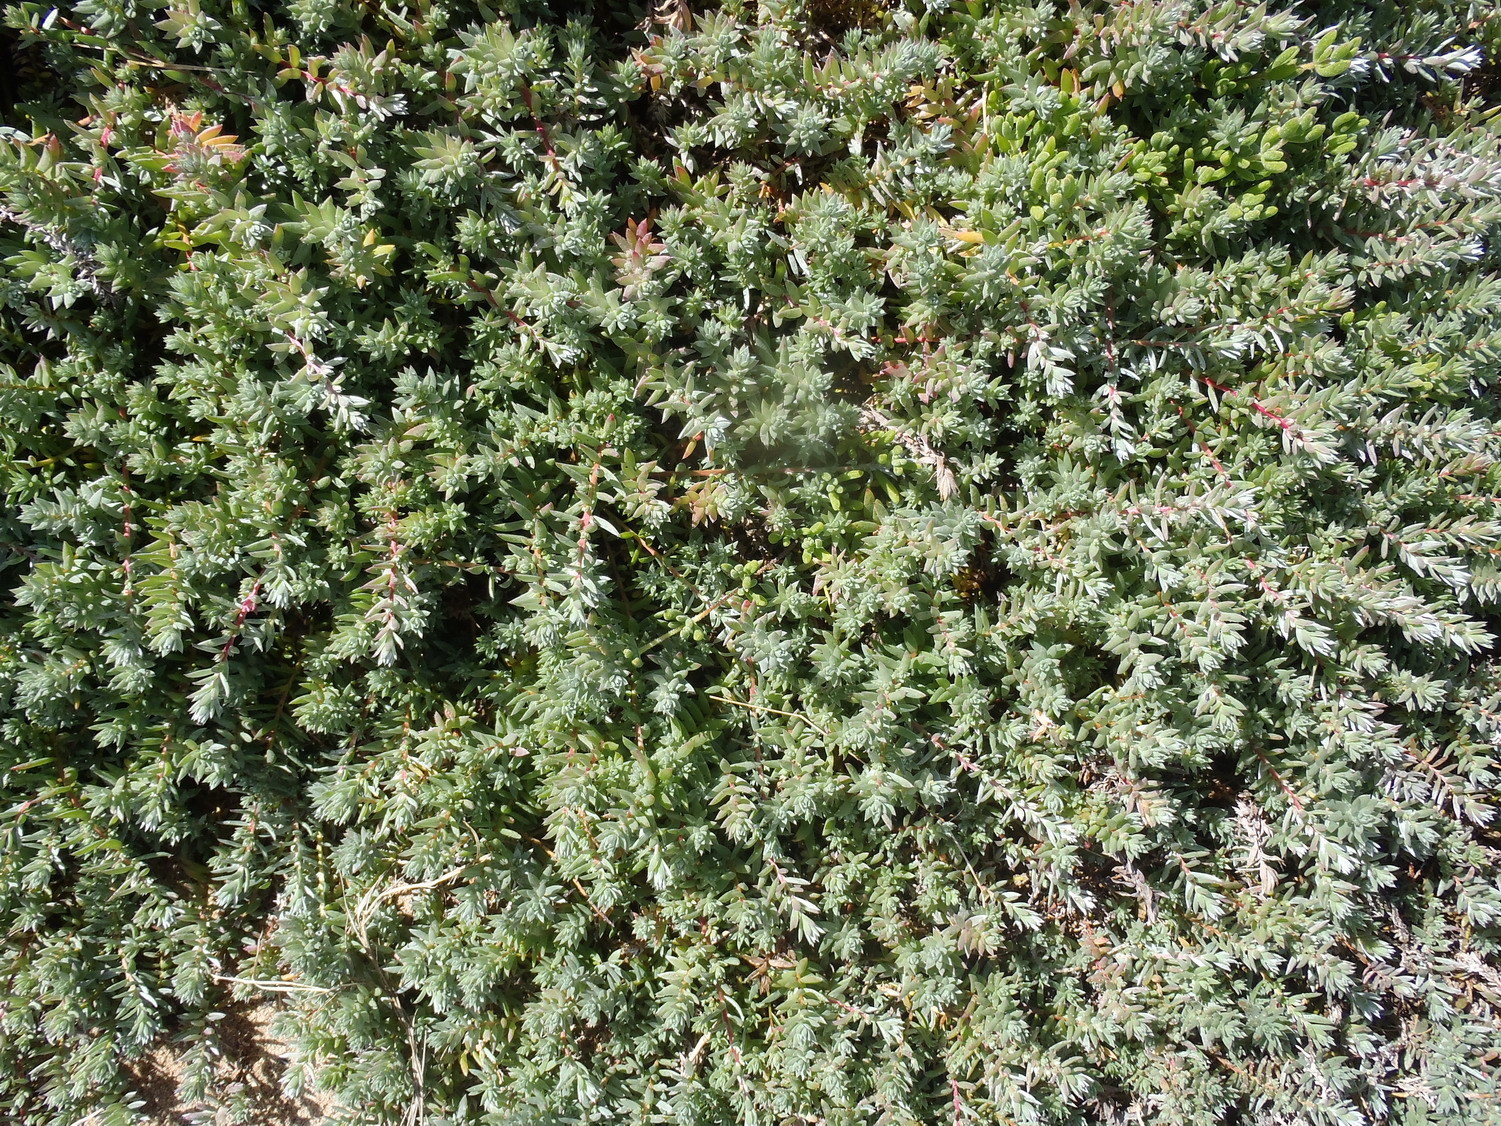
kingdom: Plantae
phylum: Tracheophyta
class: Magnoliopsida
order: Caryophyllales
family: Amaranthaceae
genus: Chenolea
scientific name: Chenolea diffusa
